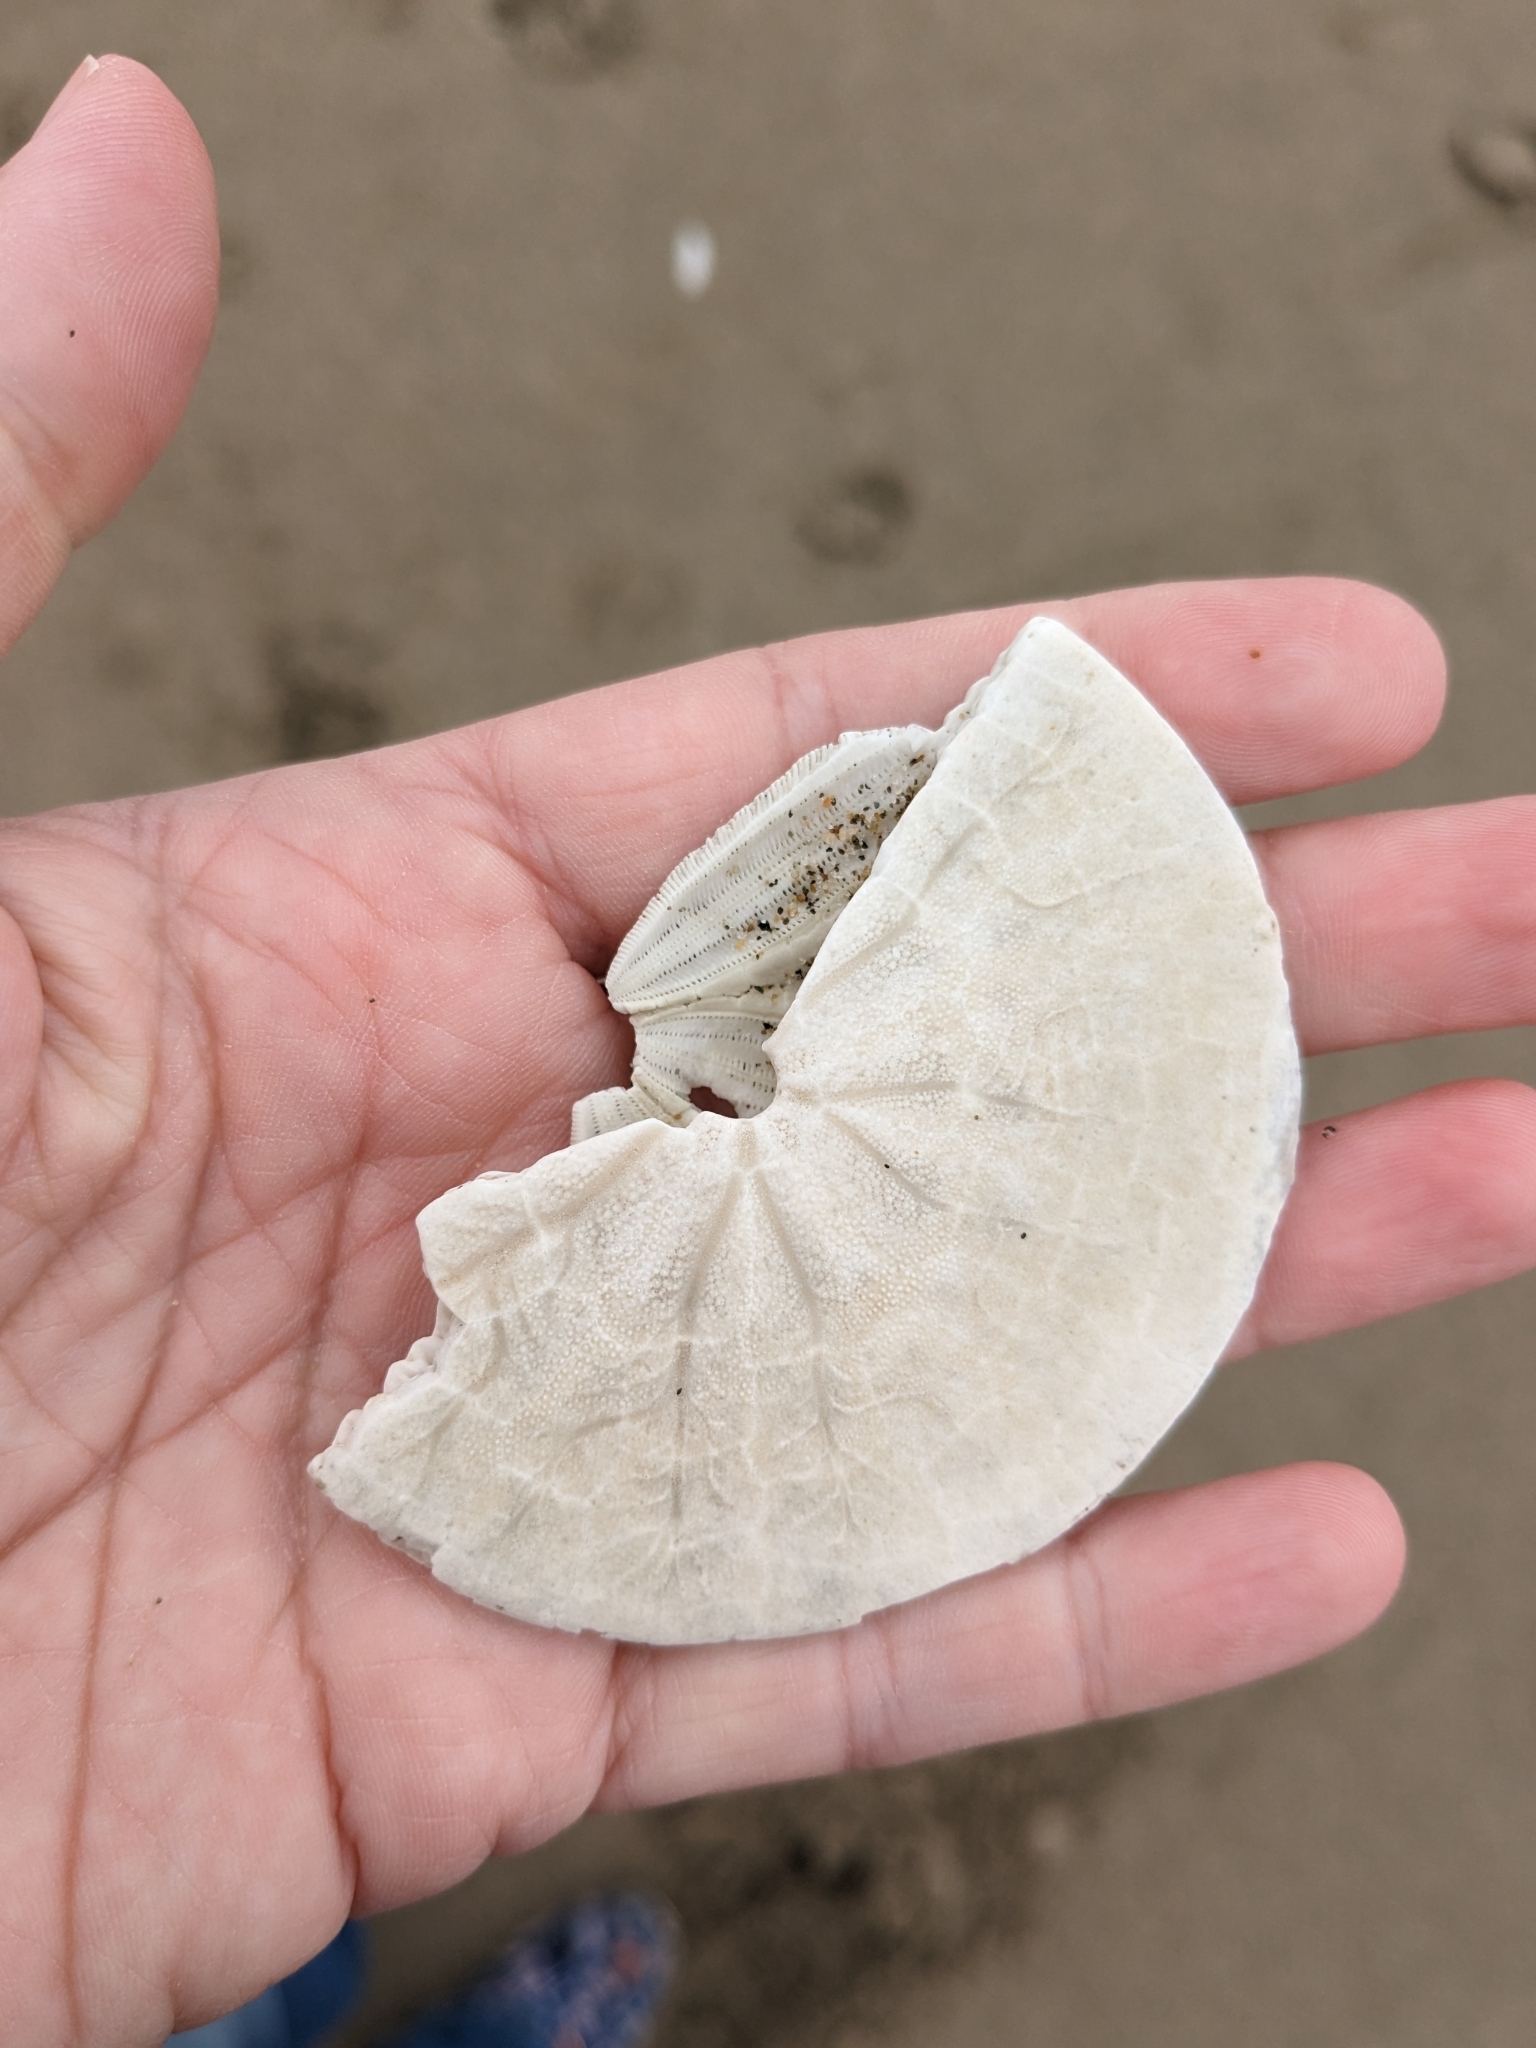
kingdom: Animalia
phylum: Echinodermata
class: Echinoidea
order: Echinolampadacea
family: Dendrasteridae
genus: Dendraster
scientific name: Dendraster excentricus
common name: Eccentric sand dollar sea urchin
